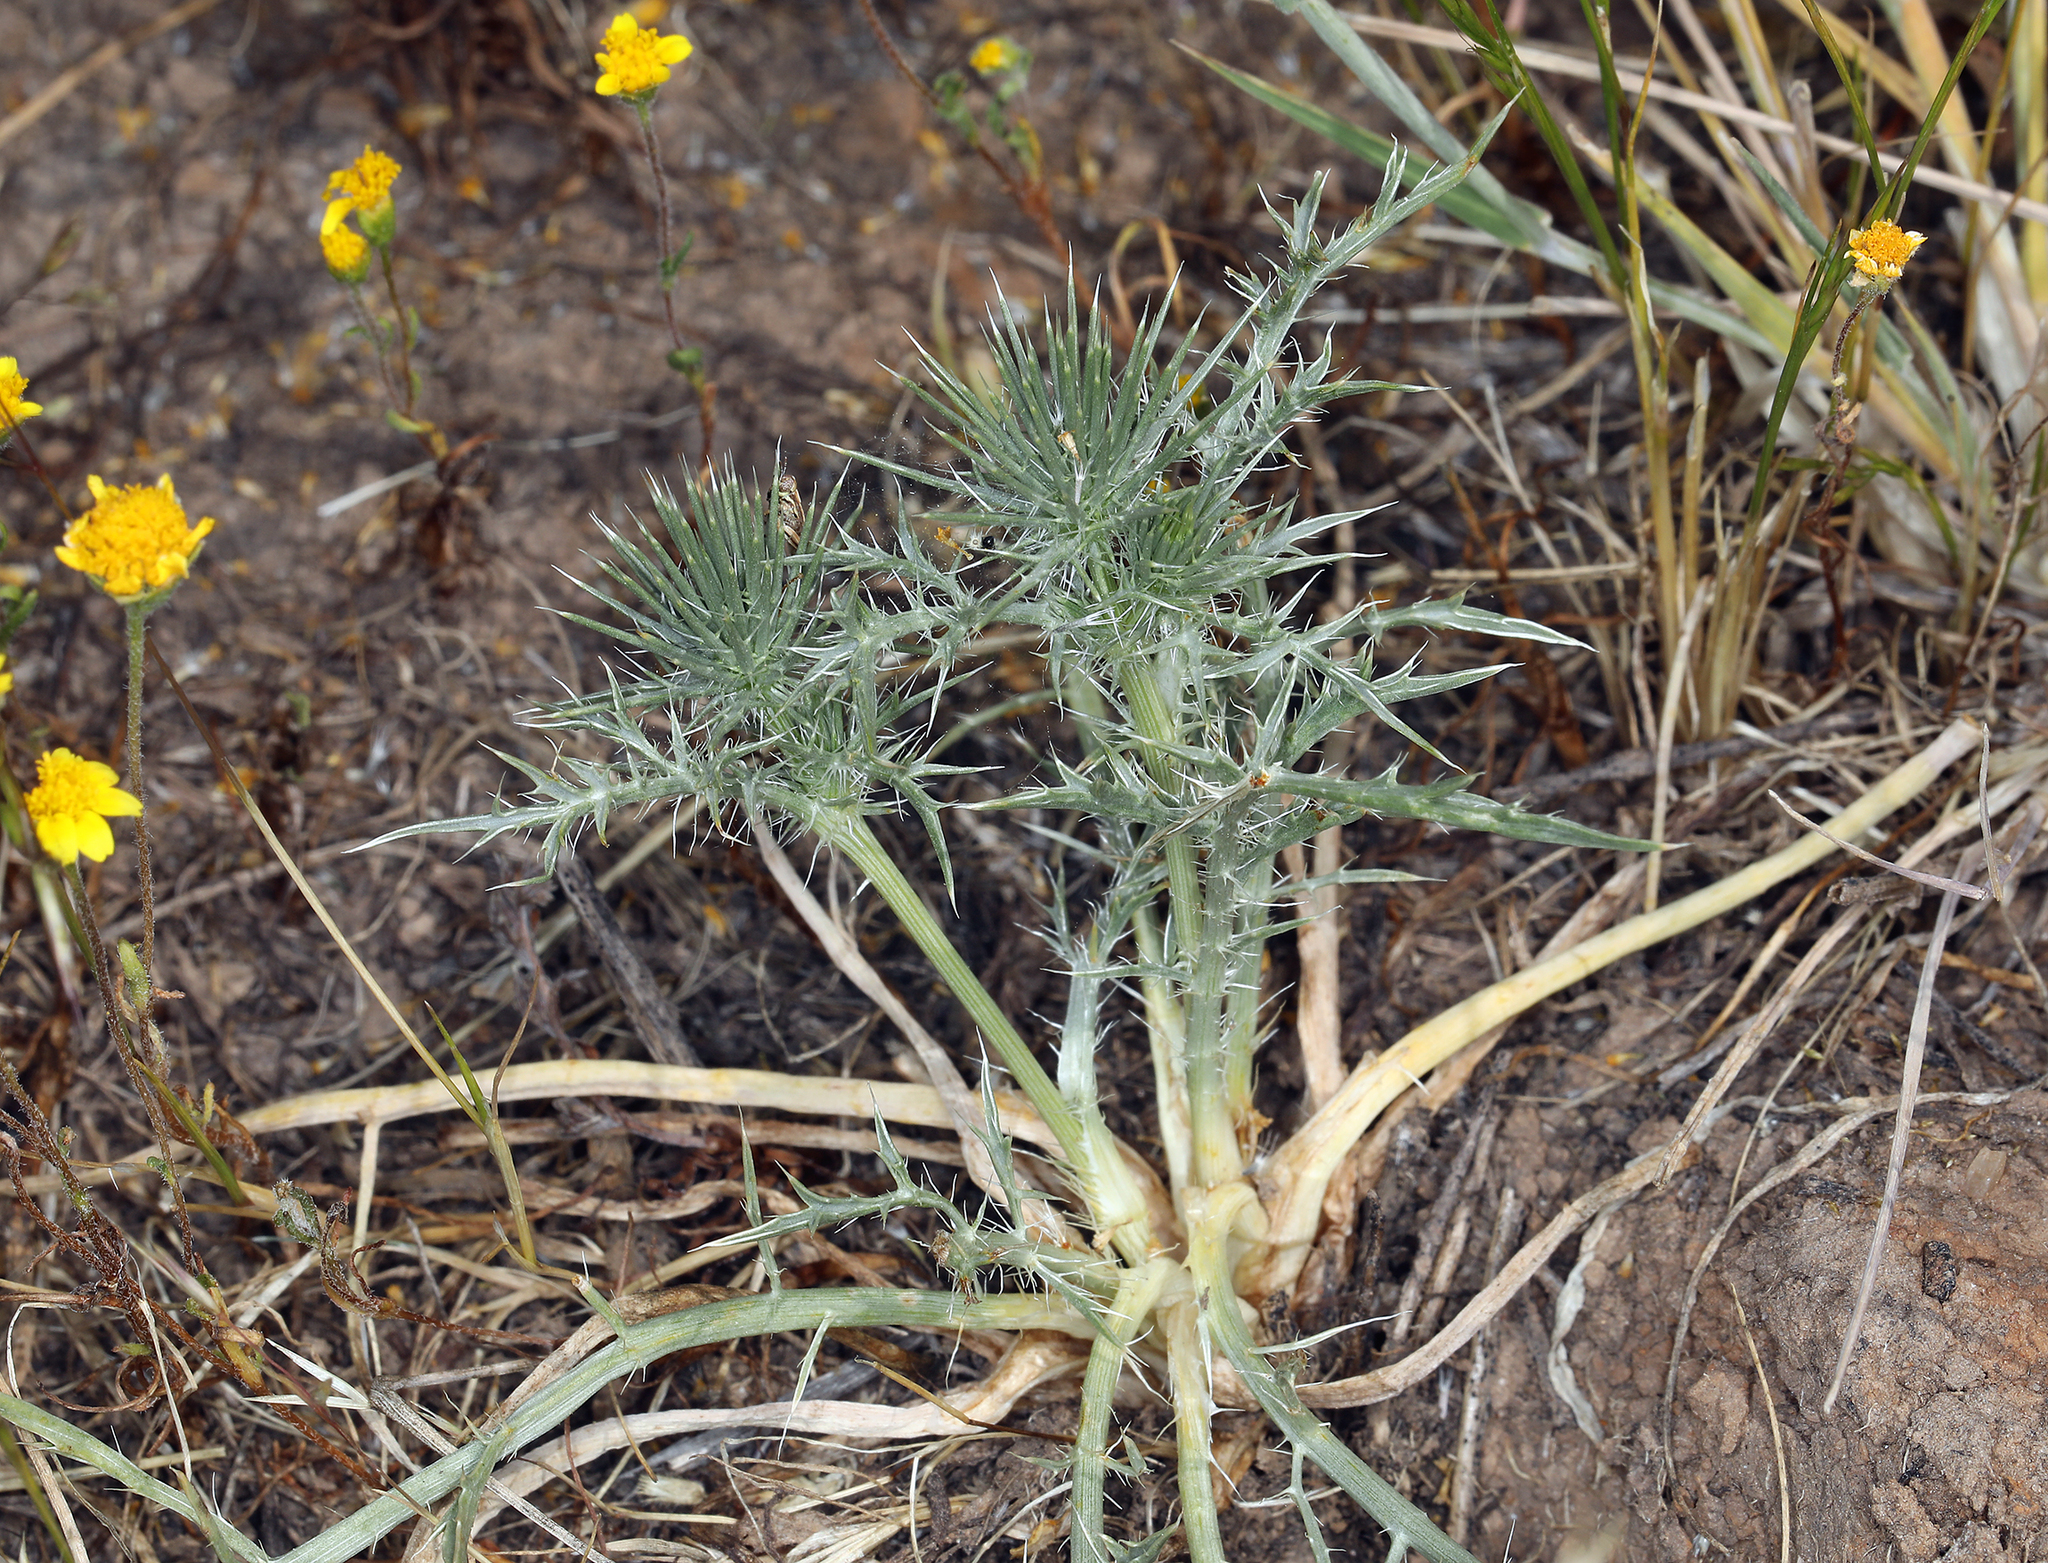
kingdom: Plantae
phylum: Tracheophyta
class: Magnoliopsida
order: Apiales
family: Apiaceae
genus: Eryngium
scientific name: Eryngium castrense
